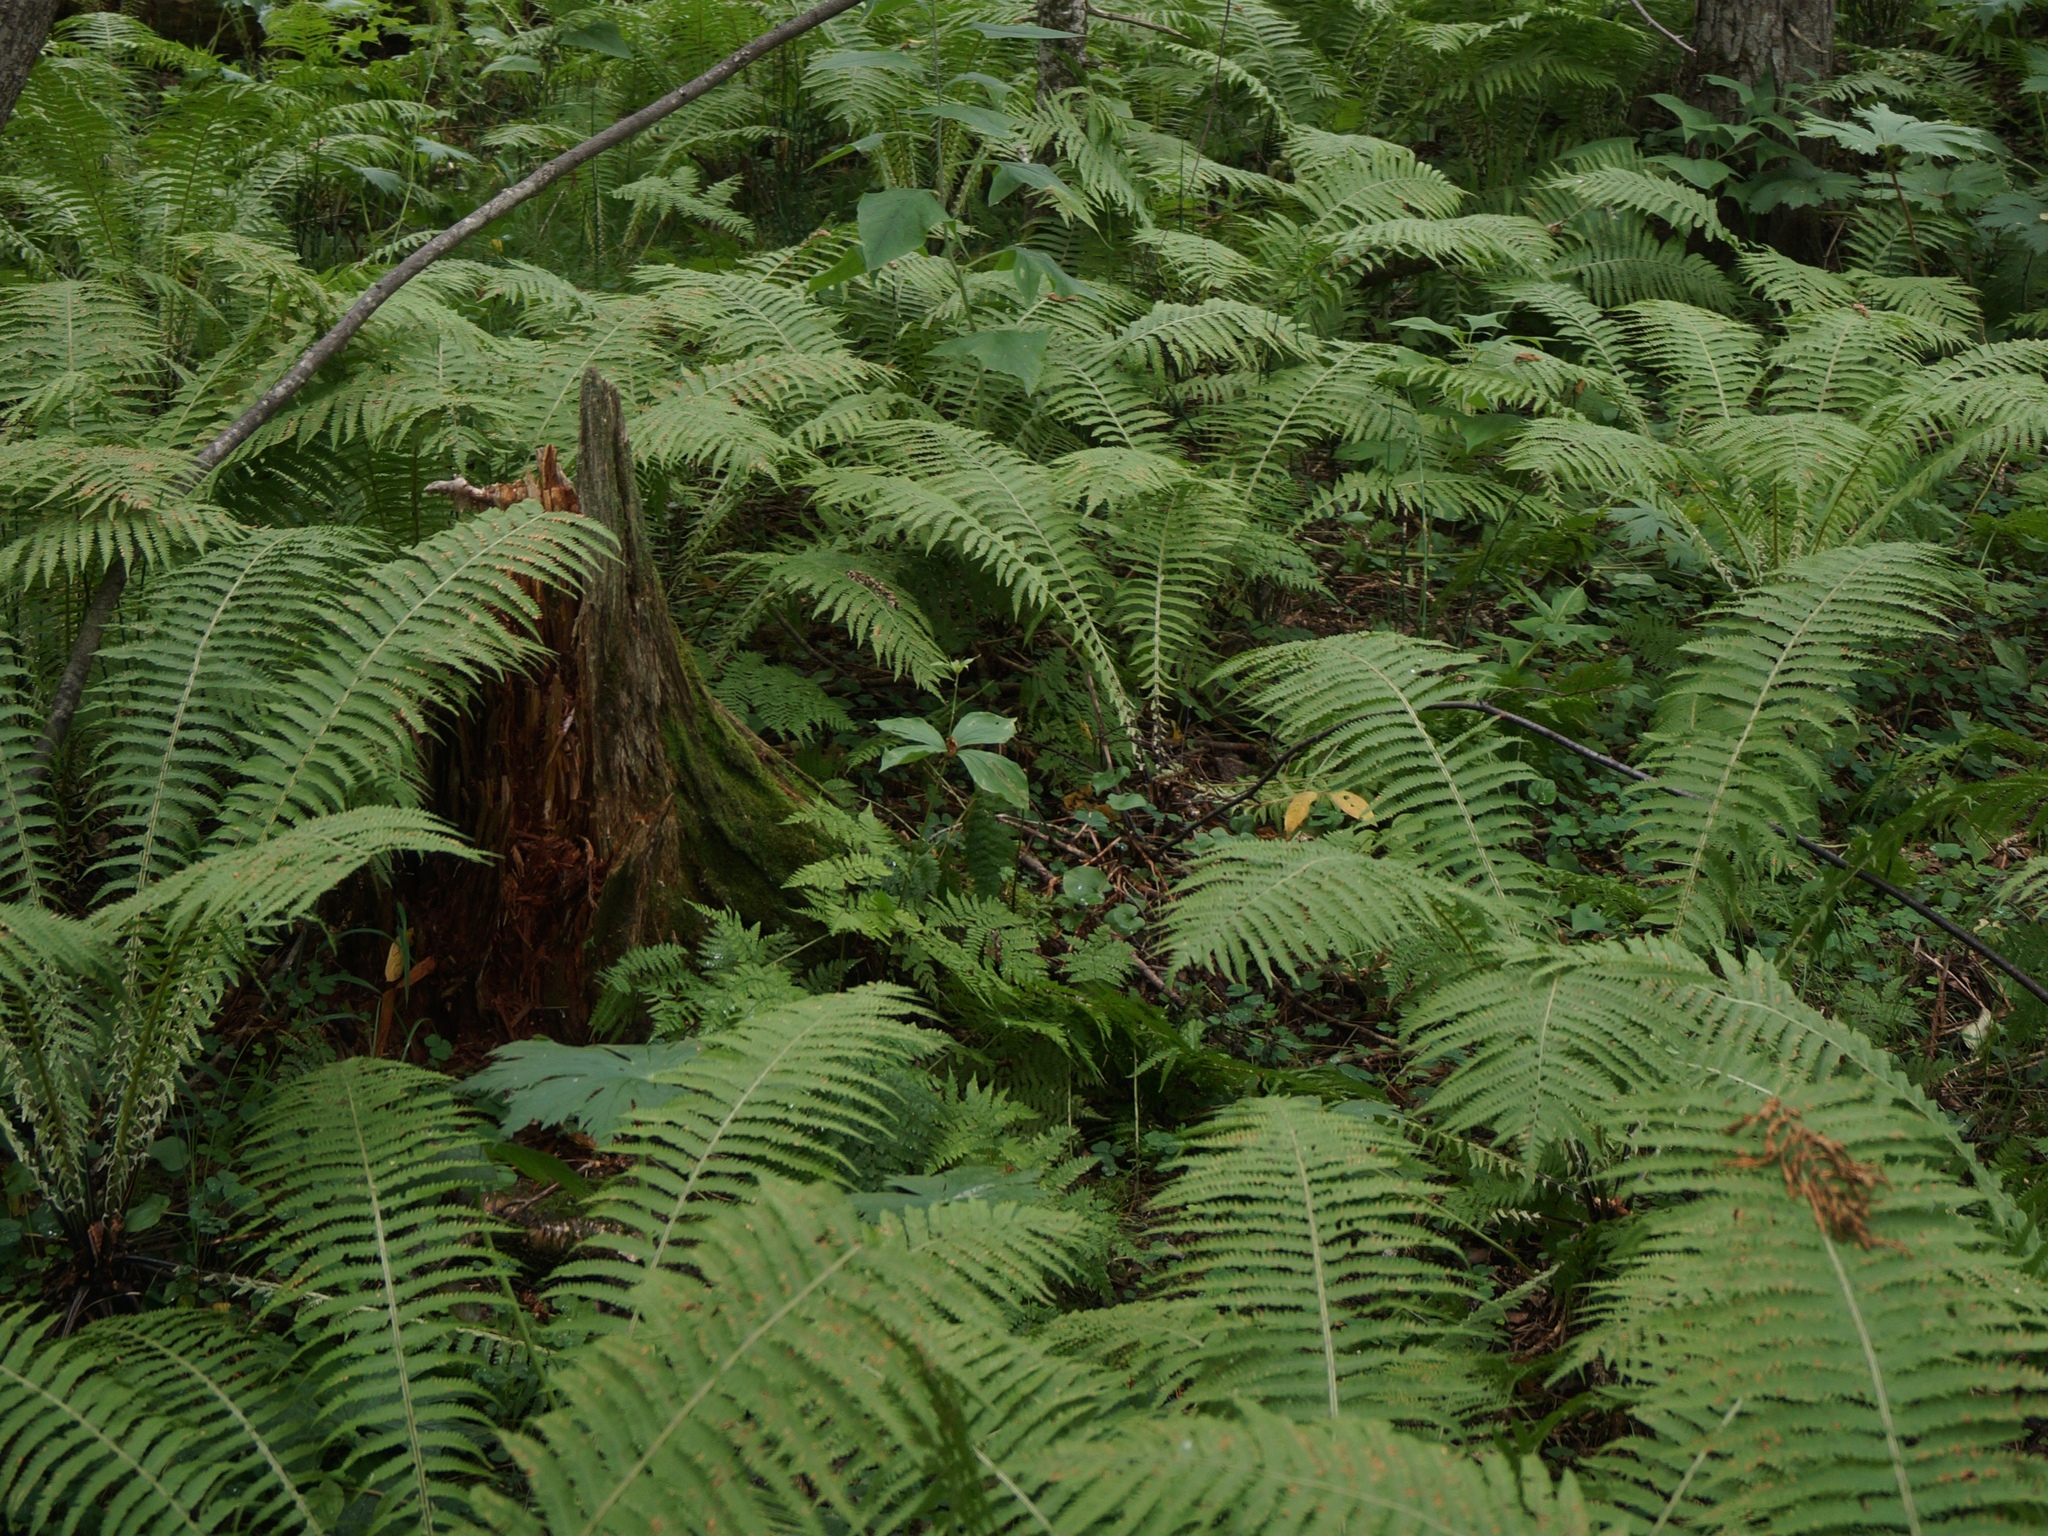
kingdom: Plantae
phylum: Tracheophyta
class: Polypodiopsida
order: Polypodiales
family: Onocleaceae
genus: Matteuccia
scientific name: Matteuccia struthiopteris
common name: Ostrich fern
